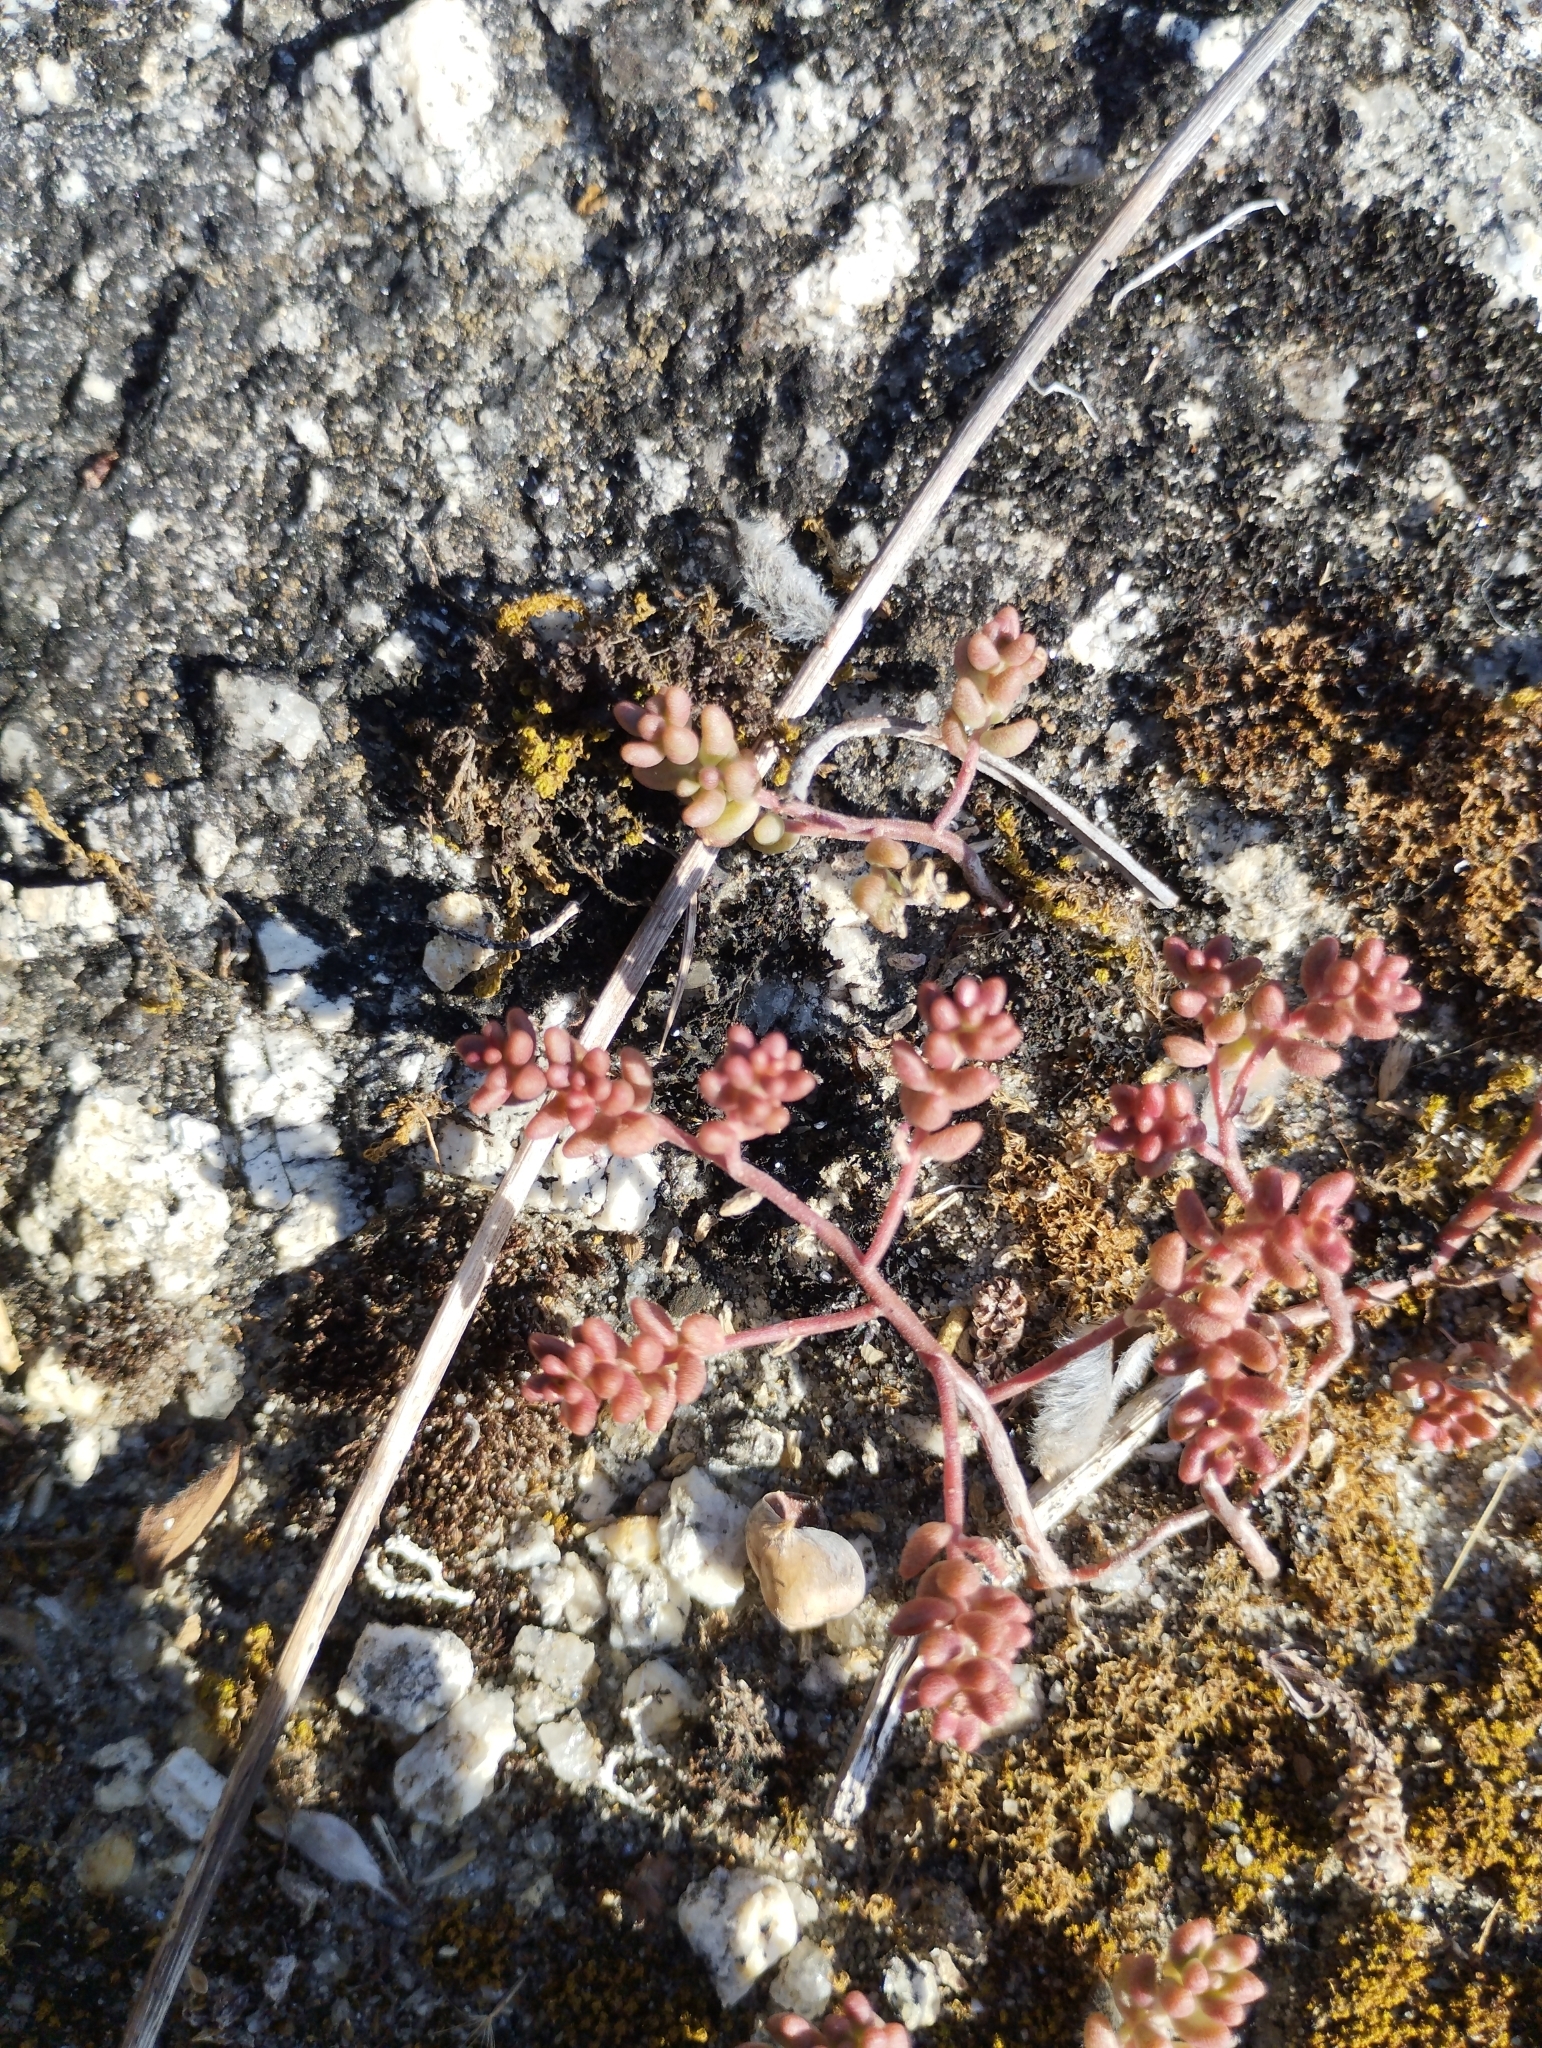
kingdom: Plantae
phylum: Tracheophyta
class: Magnoliopsida
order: Saxifragales
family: Crassulaceae
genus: Sedum
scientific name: Sedum album
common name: White stonecrop
